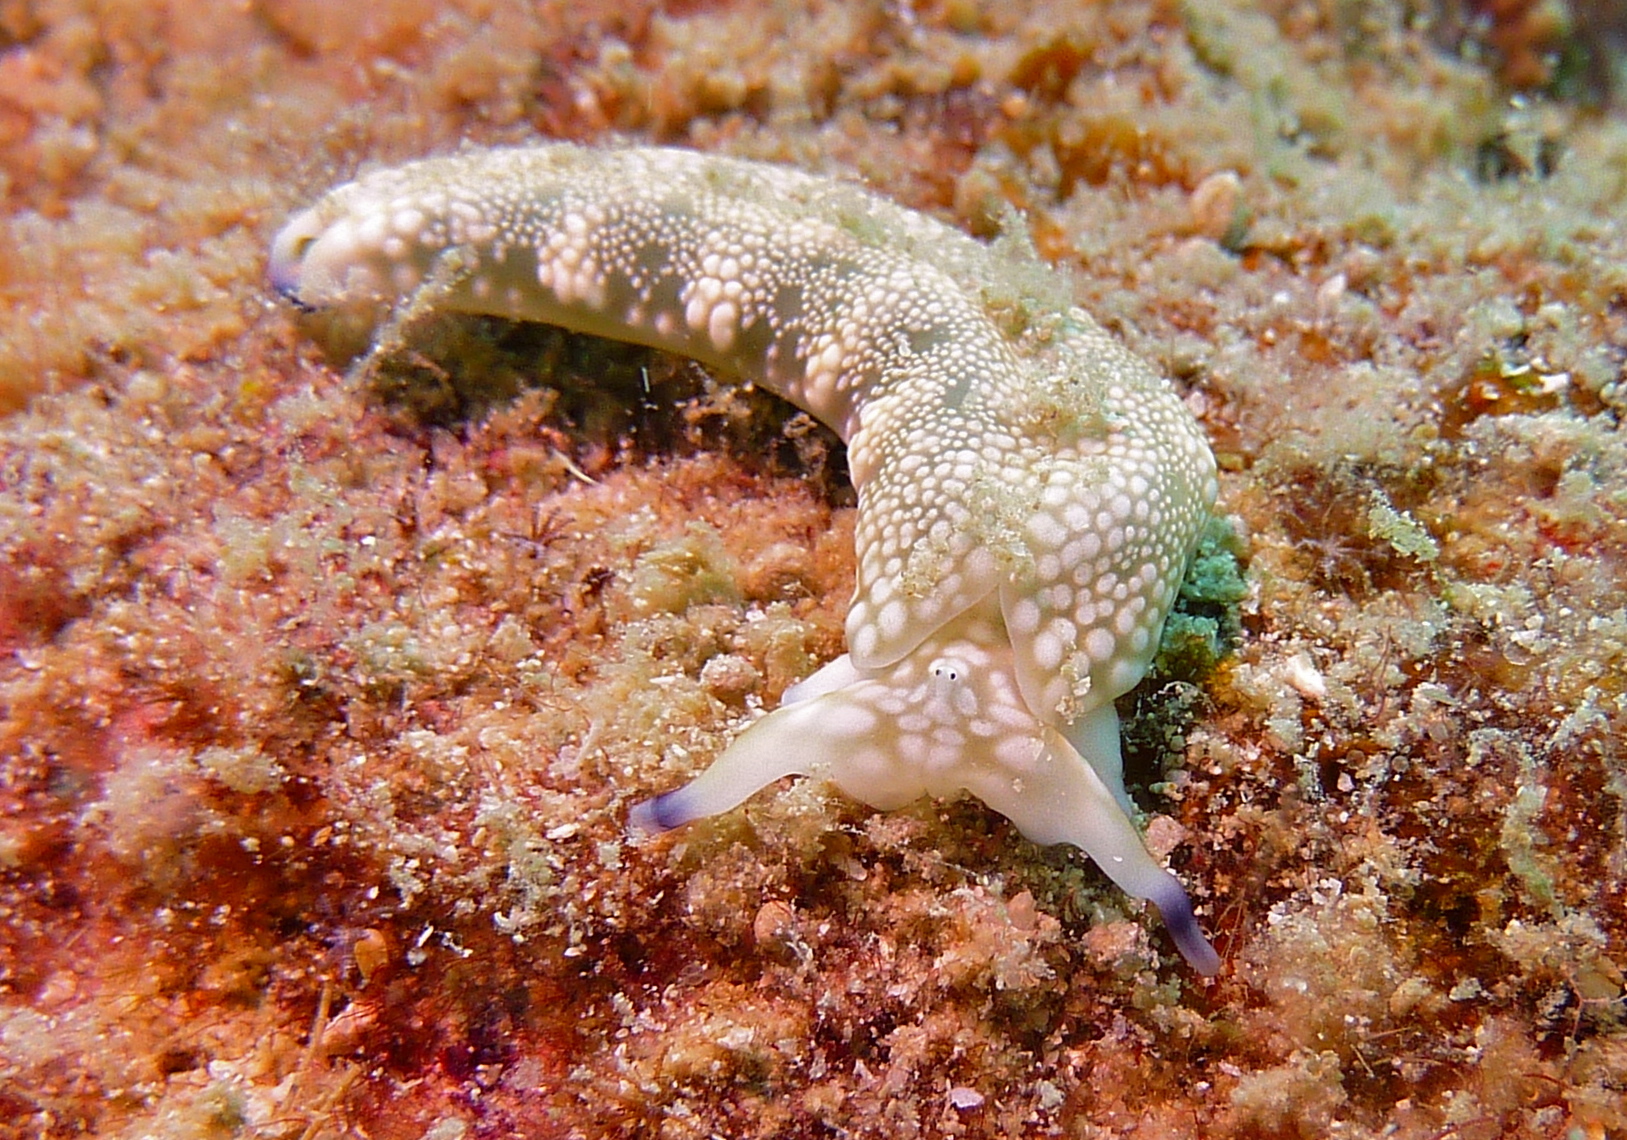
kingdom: Animalia
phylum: Mollusca
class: Gastropoda
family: Plakobranchidae
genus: Plakobranchus
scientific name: Plakobranchus papua
